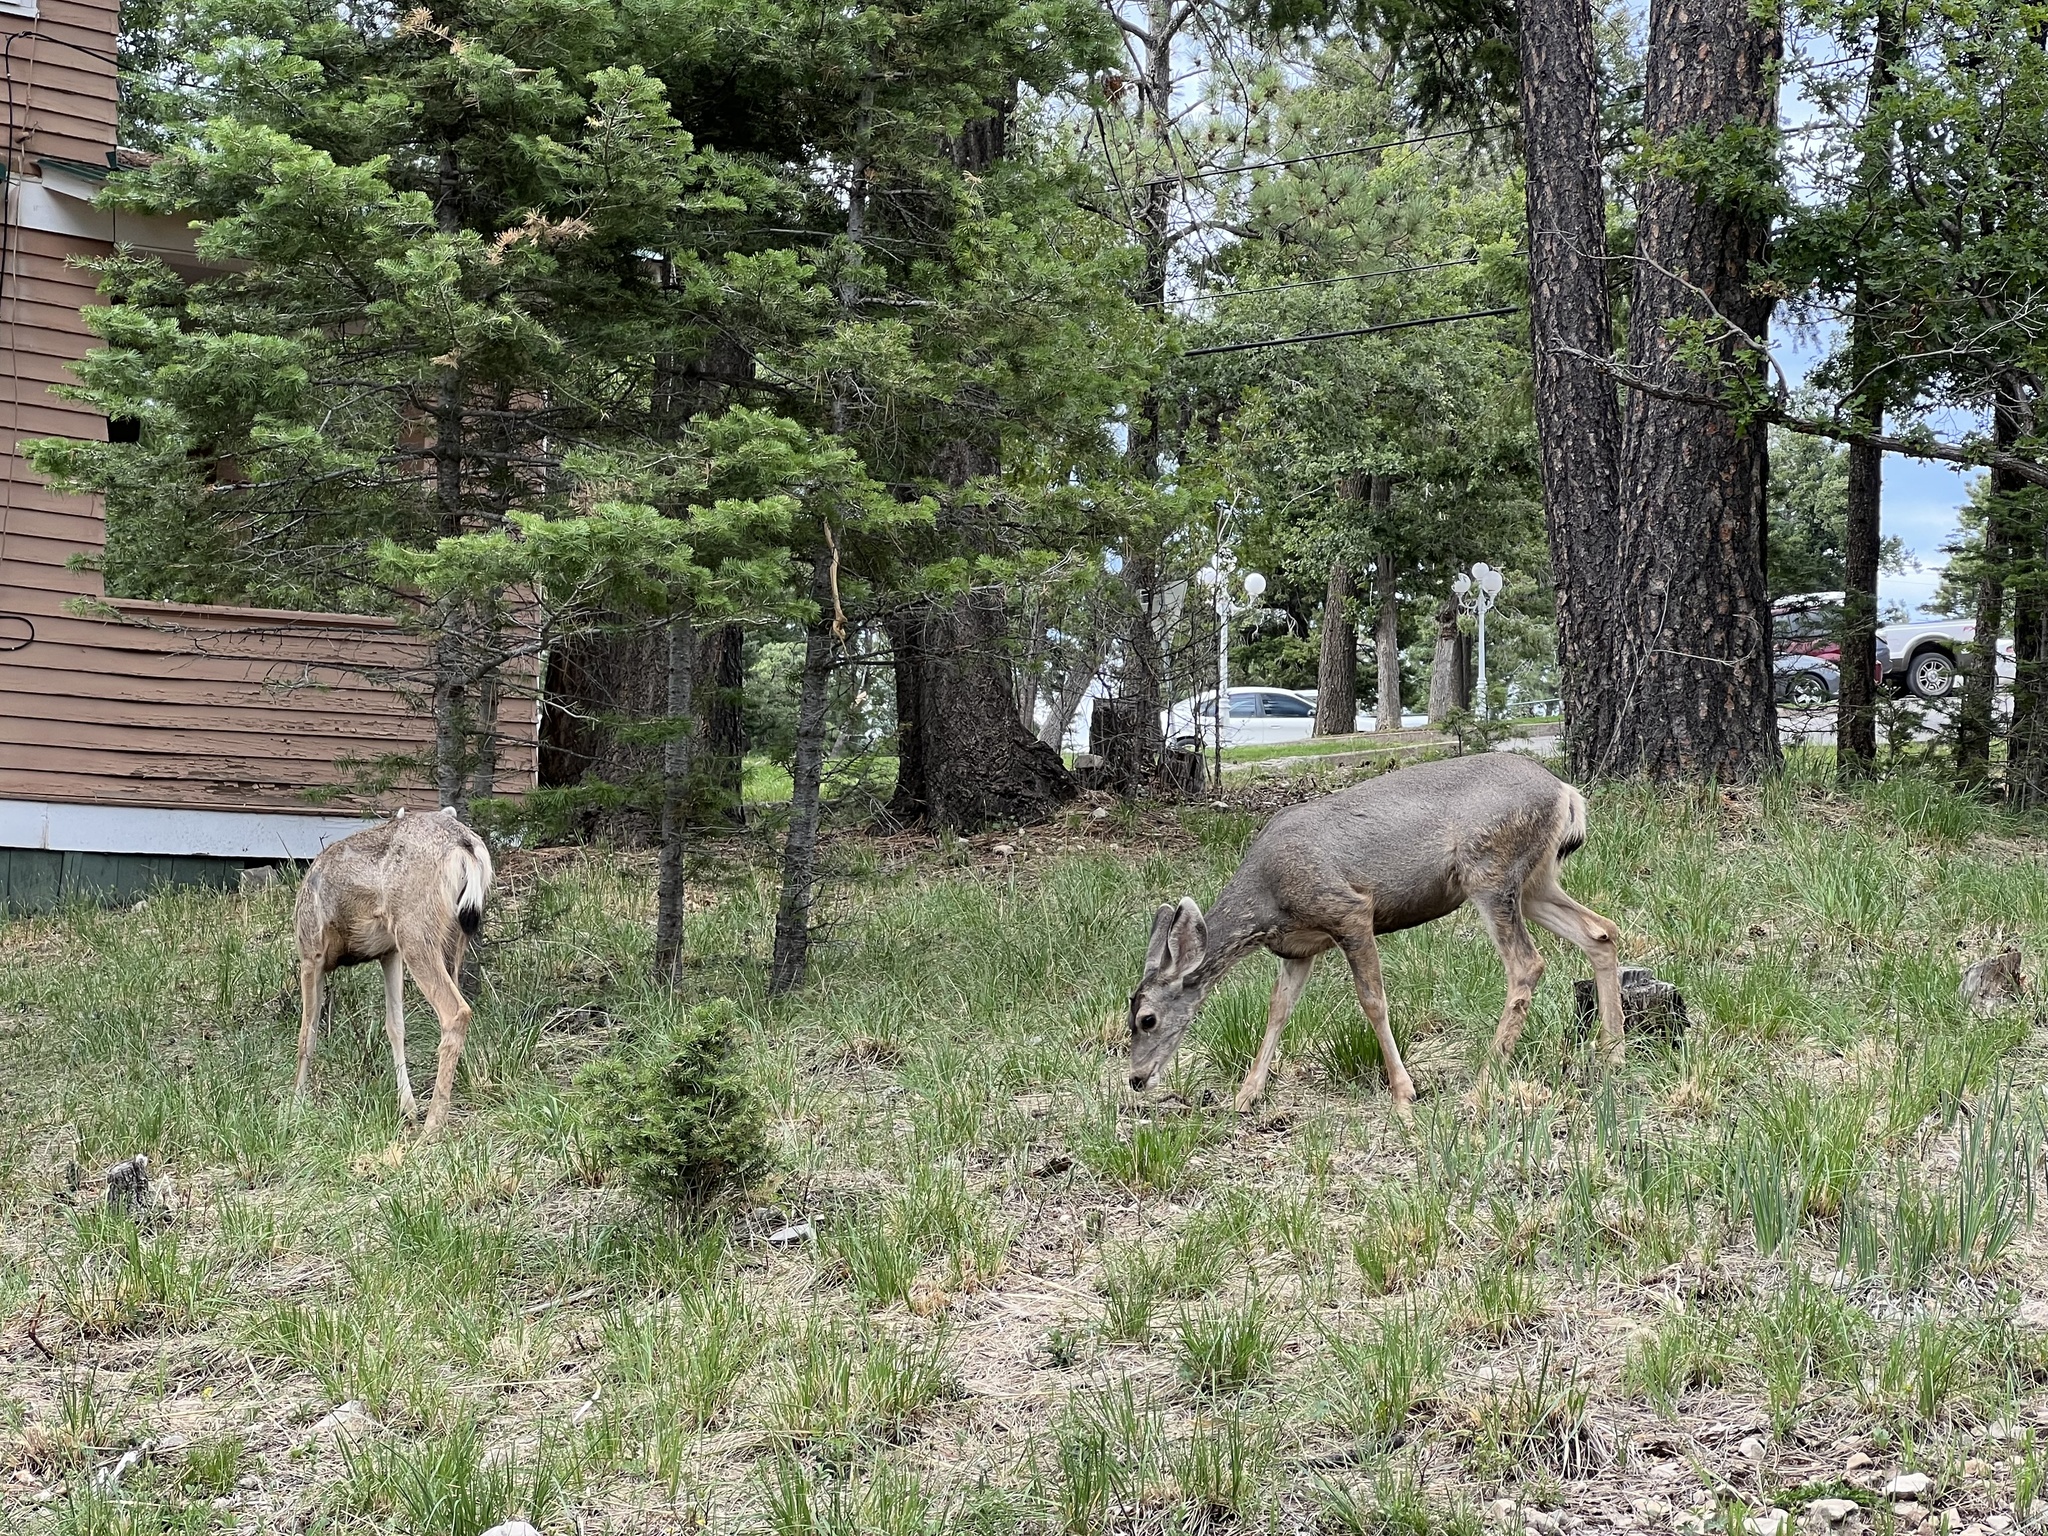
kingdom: Animalia
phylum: Chordata
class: Mammalia
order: Artiodactyla
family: Cervidae
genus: Odocoileus
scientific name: Odocoileus hemionus
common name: Mule deer
